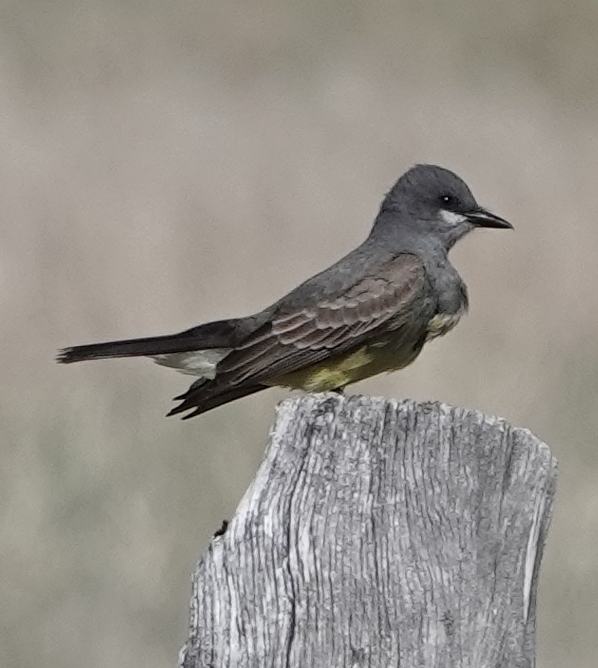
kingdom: Animalia
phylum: Chordata
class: Aves
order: Passeriformes
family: Tyrannidae
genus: Tyrannus
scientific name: Tyrannus vociferans
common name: Cassin's kingbird
